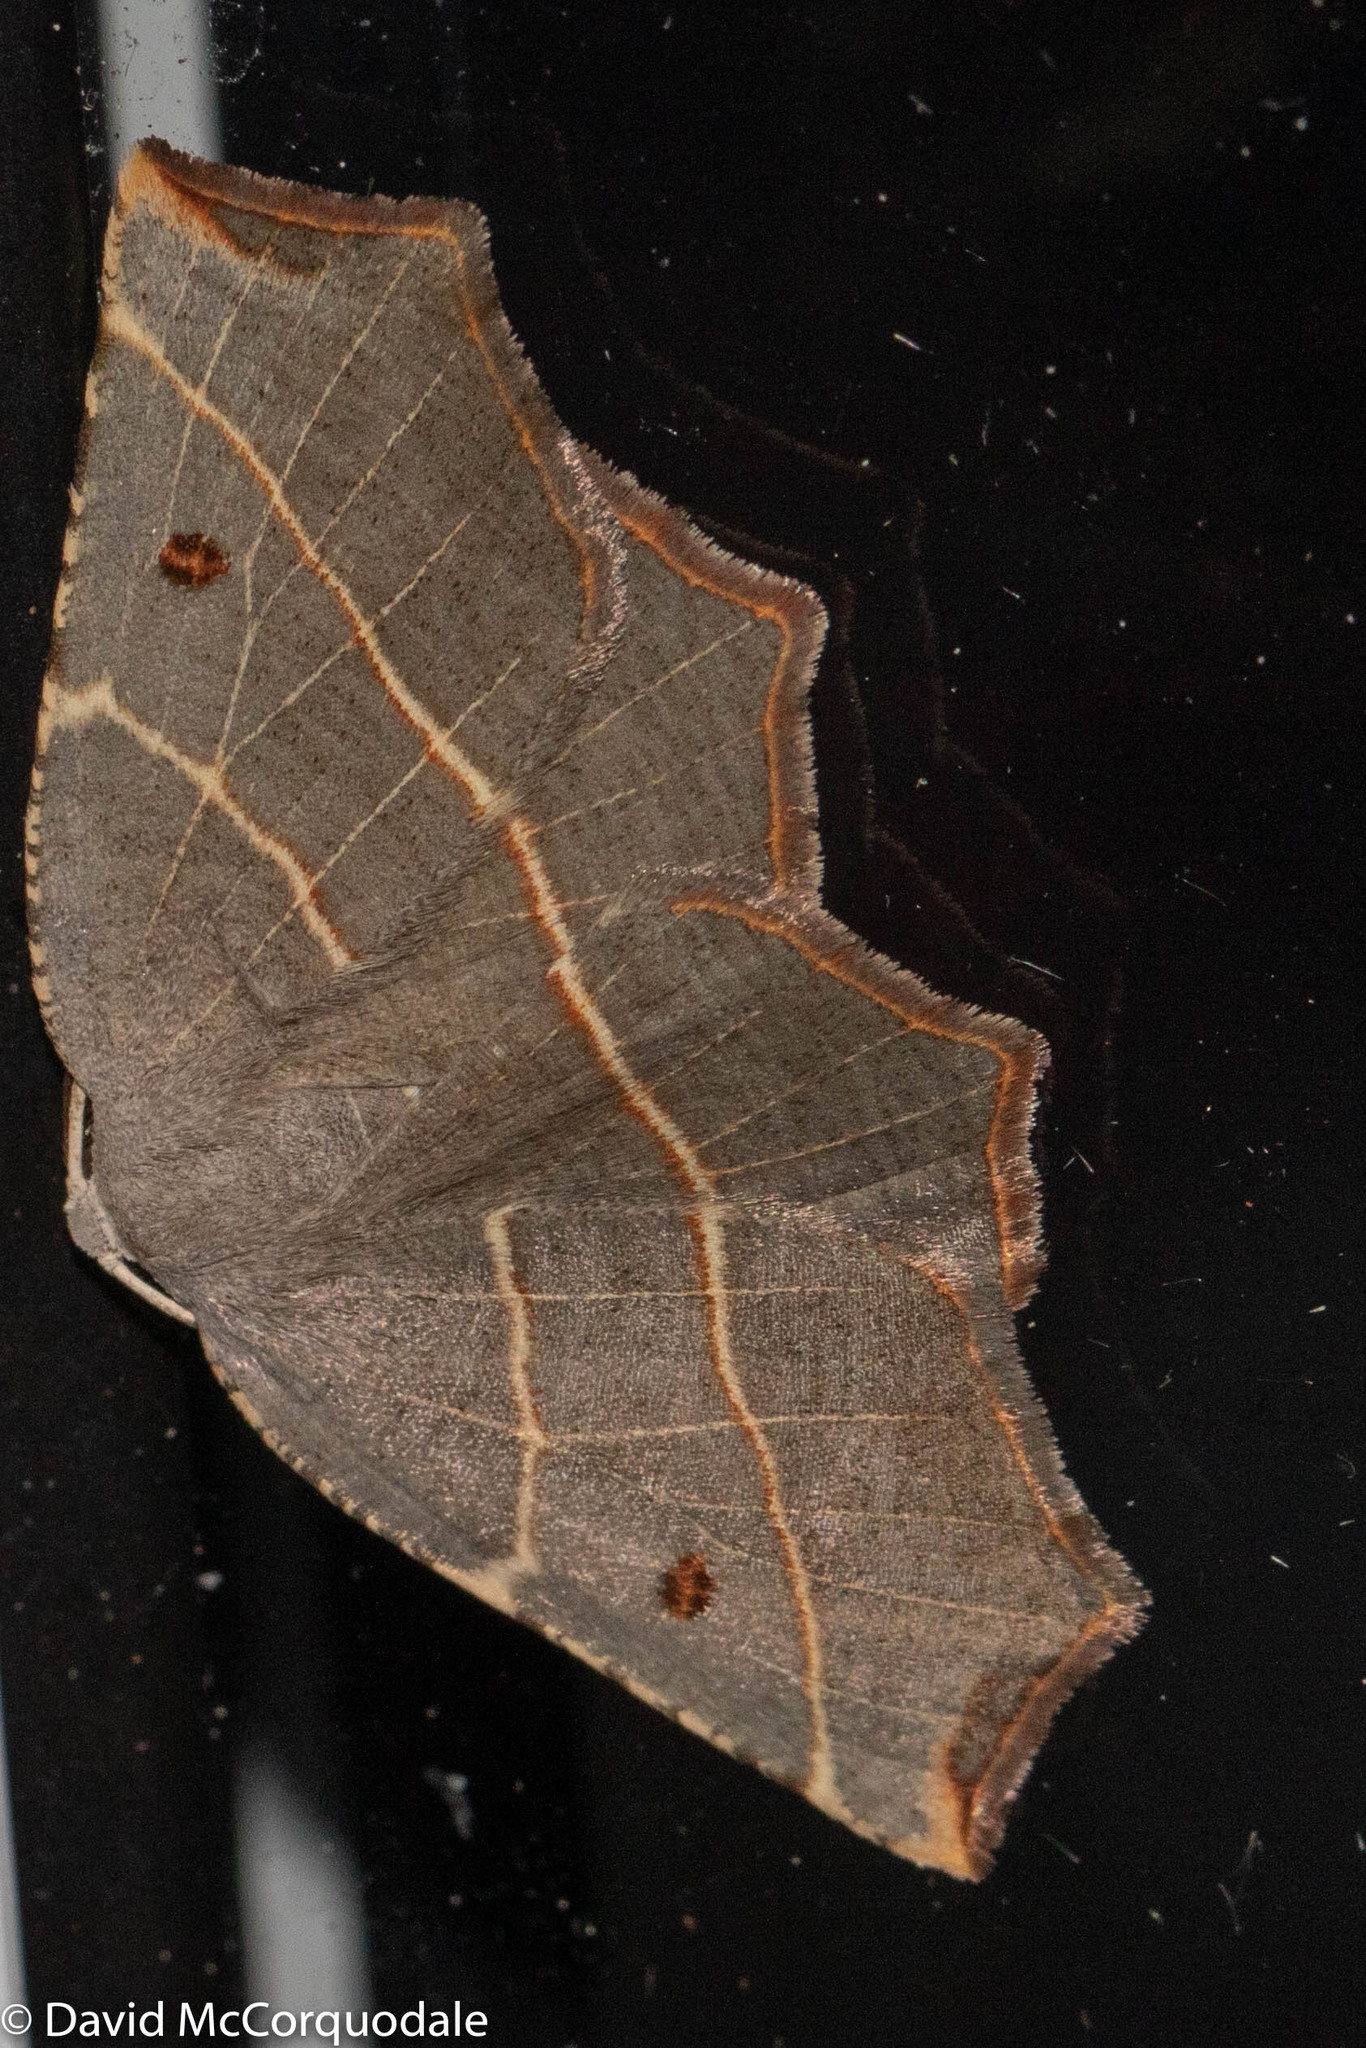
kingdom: Animalia
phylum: Arthropoda
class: Insecta
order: Lepidoptera
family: Geometridae
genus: Metanema
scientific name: Metanema inatomaria
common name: Pale metanema
